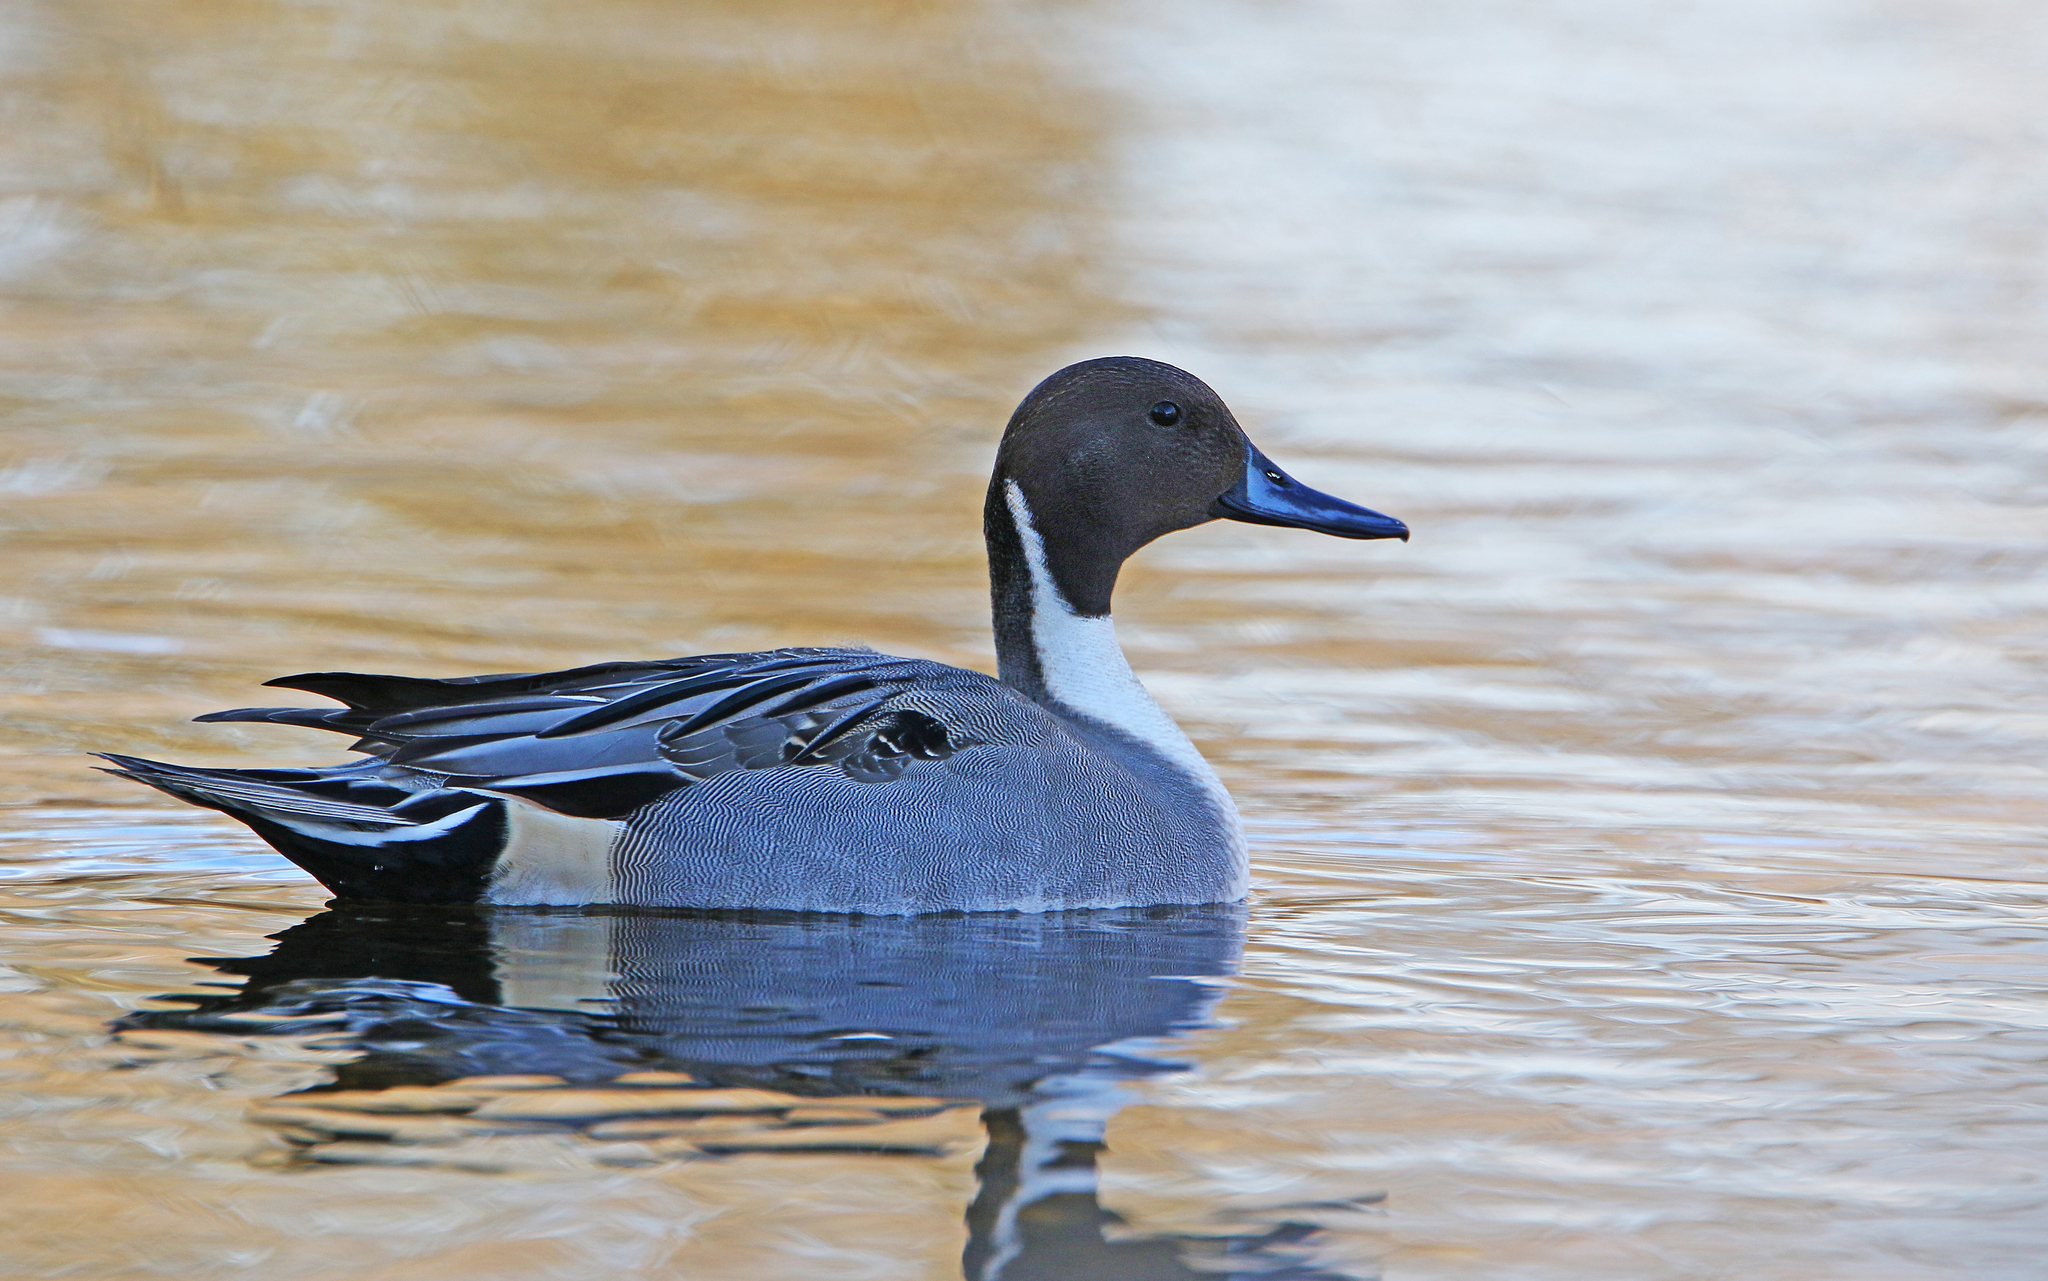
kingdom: Animalia
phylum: Chordata
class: Aves
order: Anseriformes
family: Anatidae
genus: Anas
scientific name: Anas acuta
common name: Northern pintail
